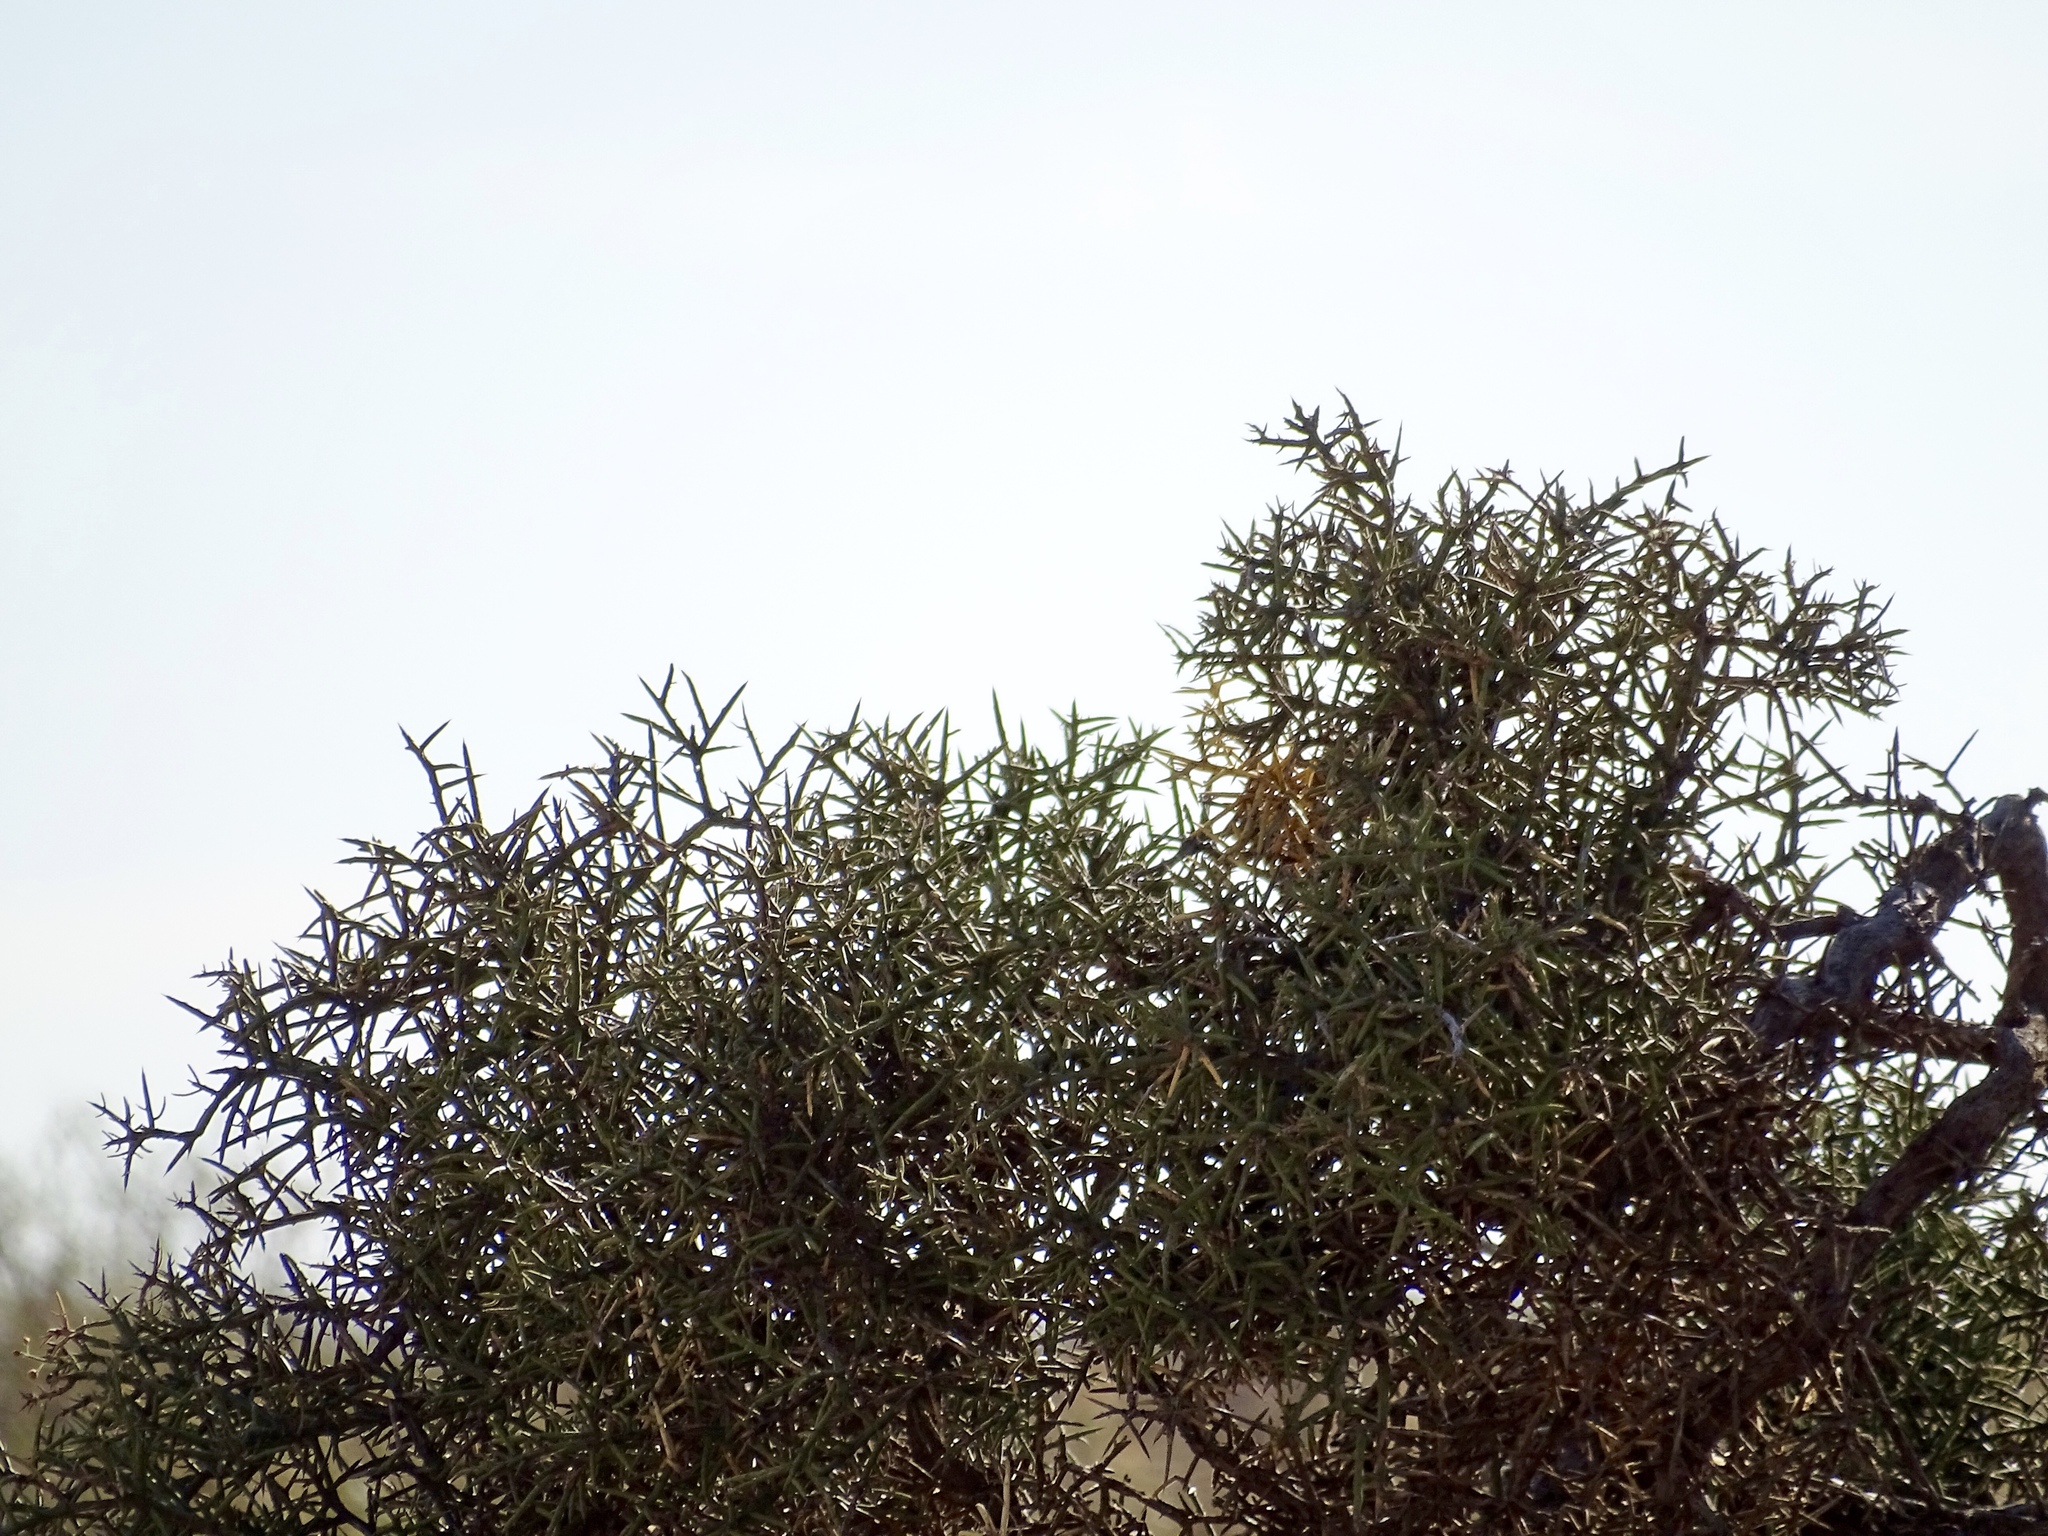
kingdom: Plantae
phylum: Tracheophyta
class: Magnoliopsida
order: Brassicales
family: Koeberliniaceae
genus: Koeberlinia
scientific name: Koeberlinia spinosa
